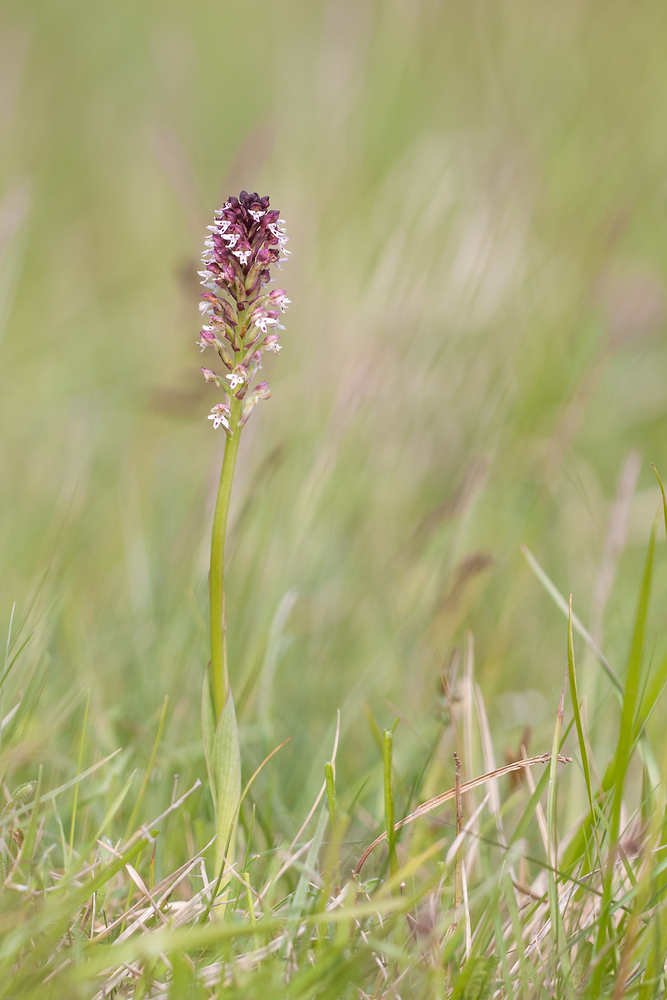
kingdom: Plantae
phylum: Tracheophyta
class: Liliopsida
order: Asparagales
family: Orchidaceae
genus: Neotinea
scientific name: Neotinea ustulata
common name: Burnt orchid
